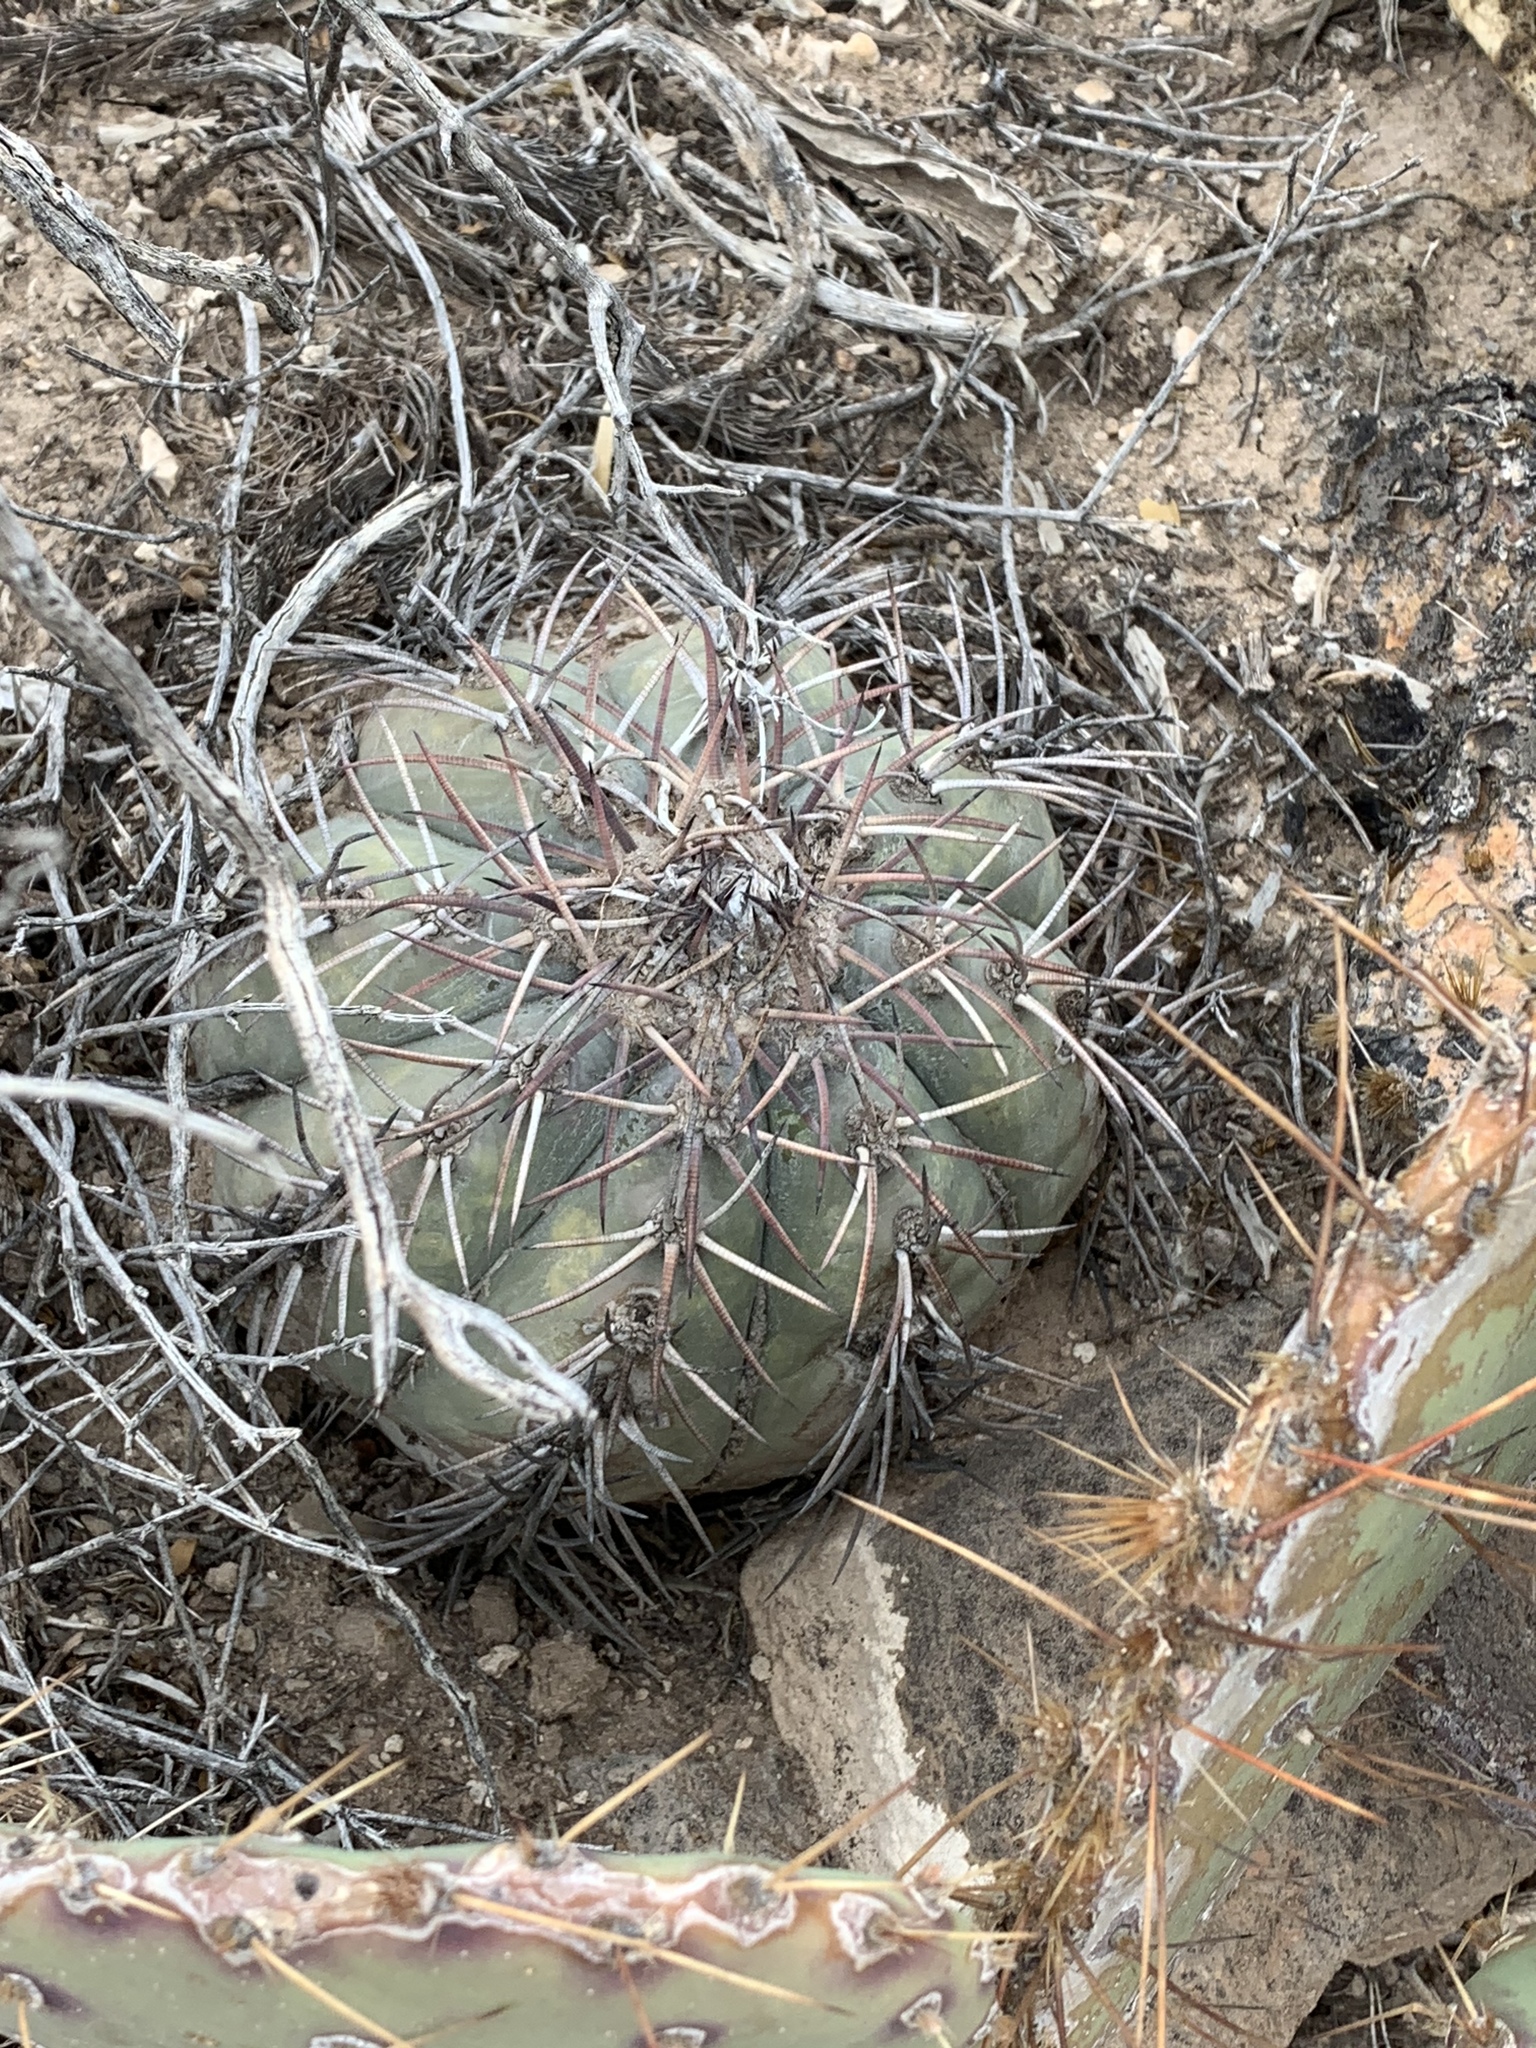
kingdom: Plantae
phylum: Tracheophyta
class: Magnoliopsida
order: Caryophyllales
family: Cactaceae
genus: Echinocactus
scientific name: Echinocactus horizonthalonius
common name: Devilshead
